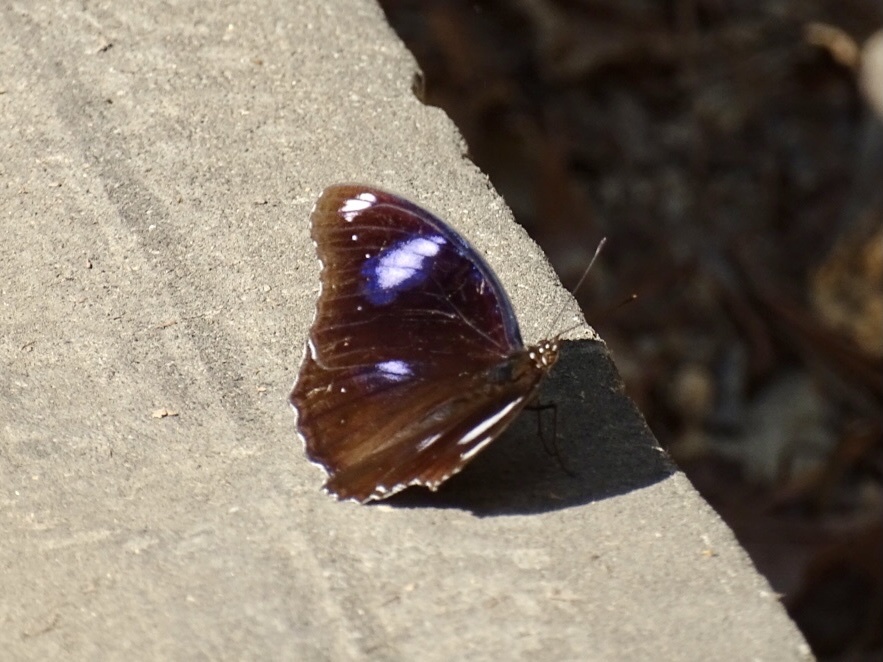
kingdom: Animalia
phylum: Arthropoda
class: Insecta
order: Lepidoptera
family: Nymphalidae
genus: Hypolimnas
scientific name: Hypolimnas bolina
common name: Great eggfly
